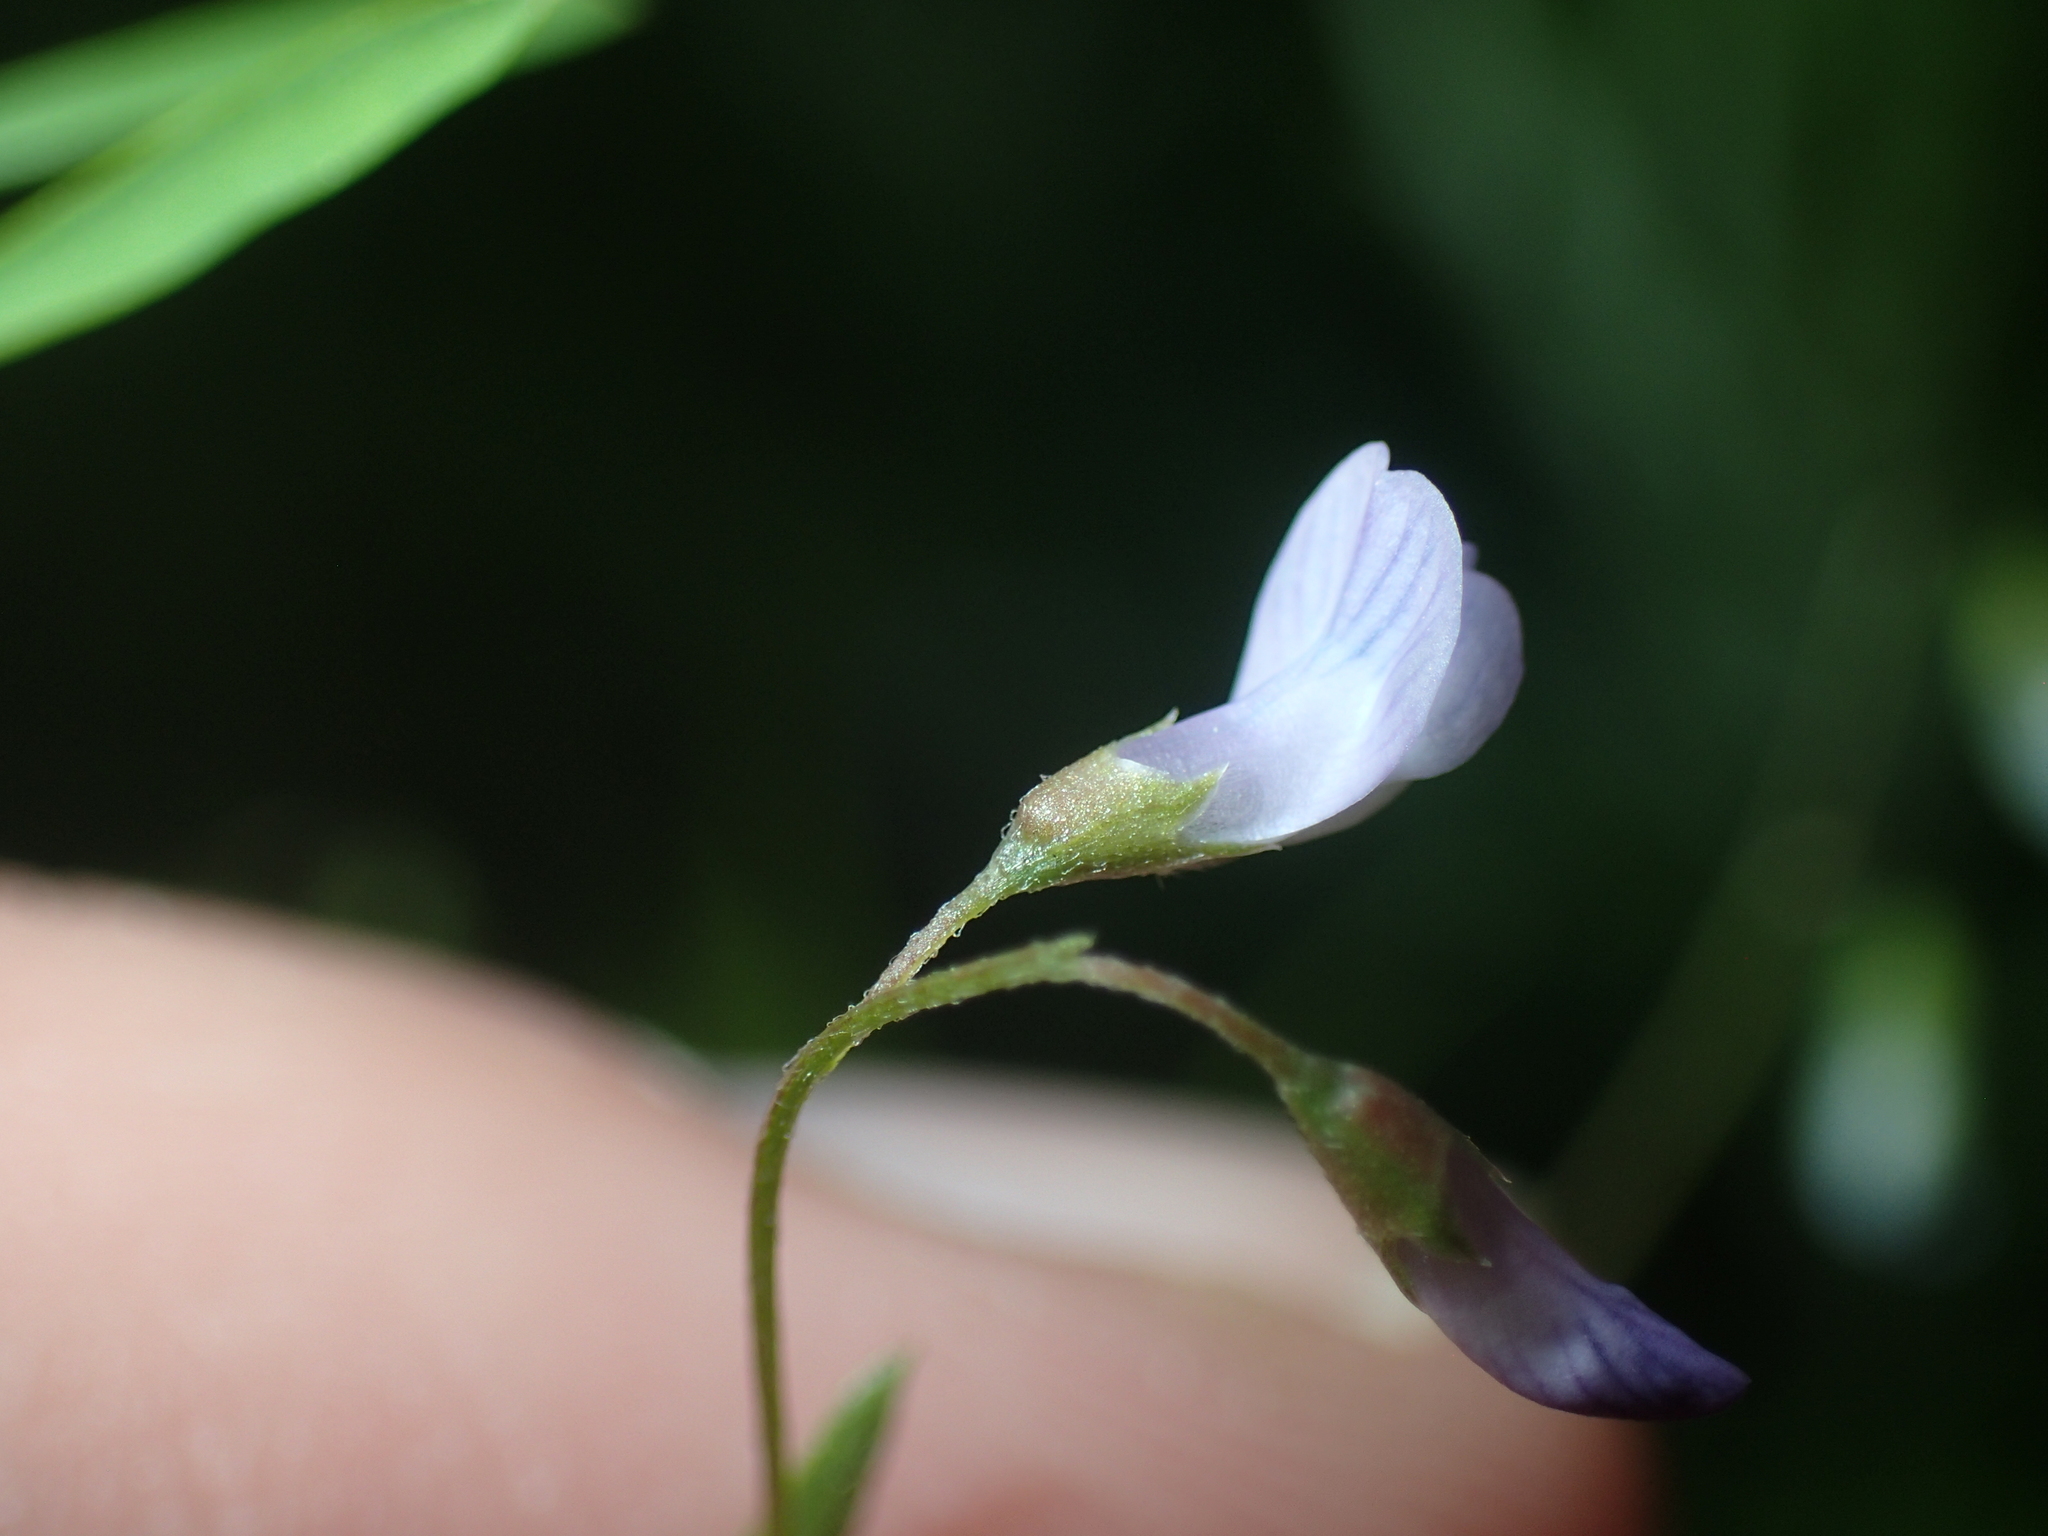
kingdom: Plantae
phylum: Tracheophyta
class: Magnoliopsida
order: Fabales
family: Fabaceae
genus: Vicia
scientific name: Vicia tetrasperma
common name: Smooth tare
